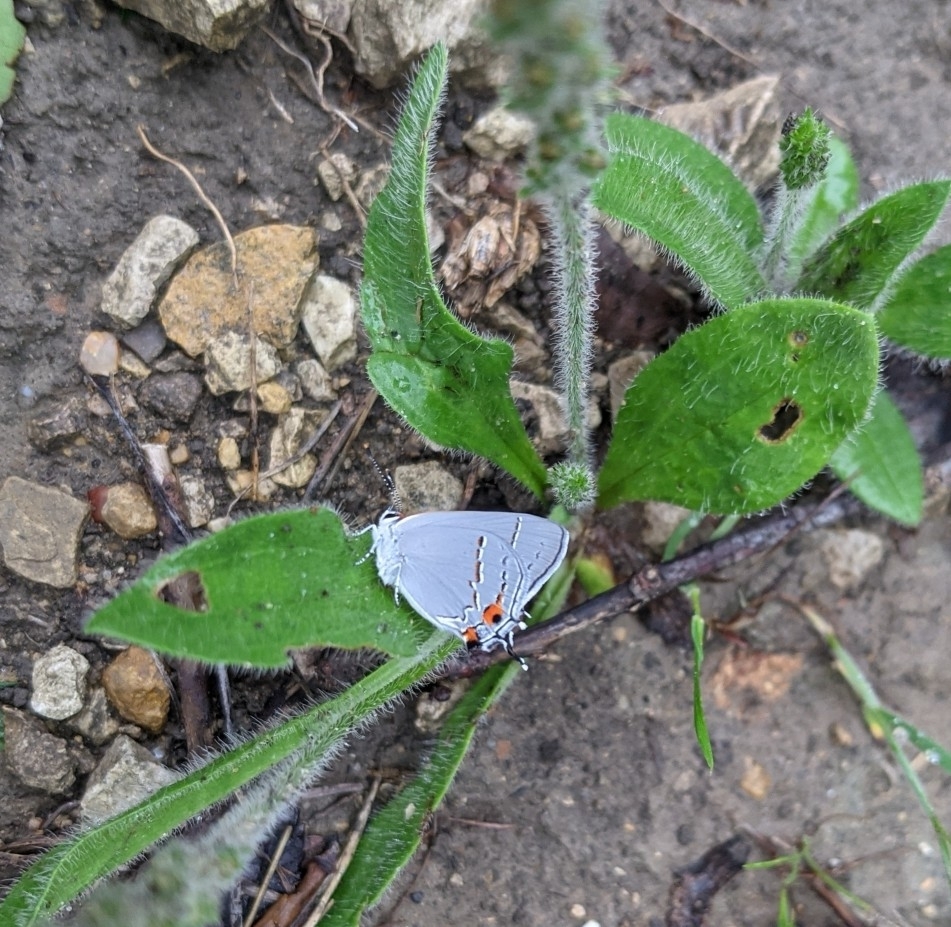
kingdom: Animalia
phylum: Arthropoda
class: Insecta
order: Lepidoptera
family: Lycaenidae
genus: Strymon
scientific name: Strymon melinus
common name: Gray hairstreak
